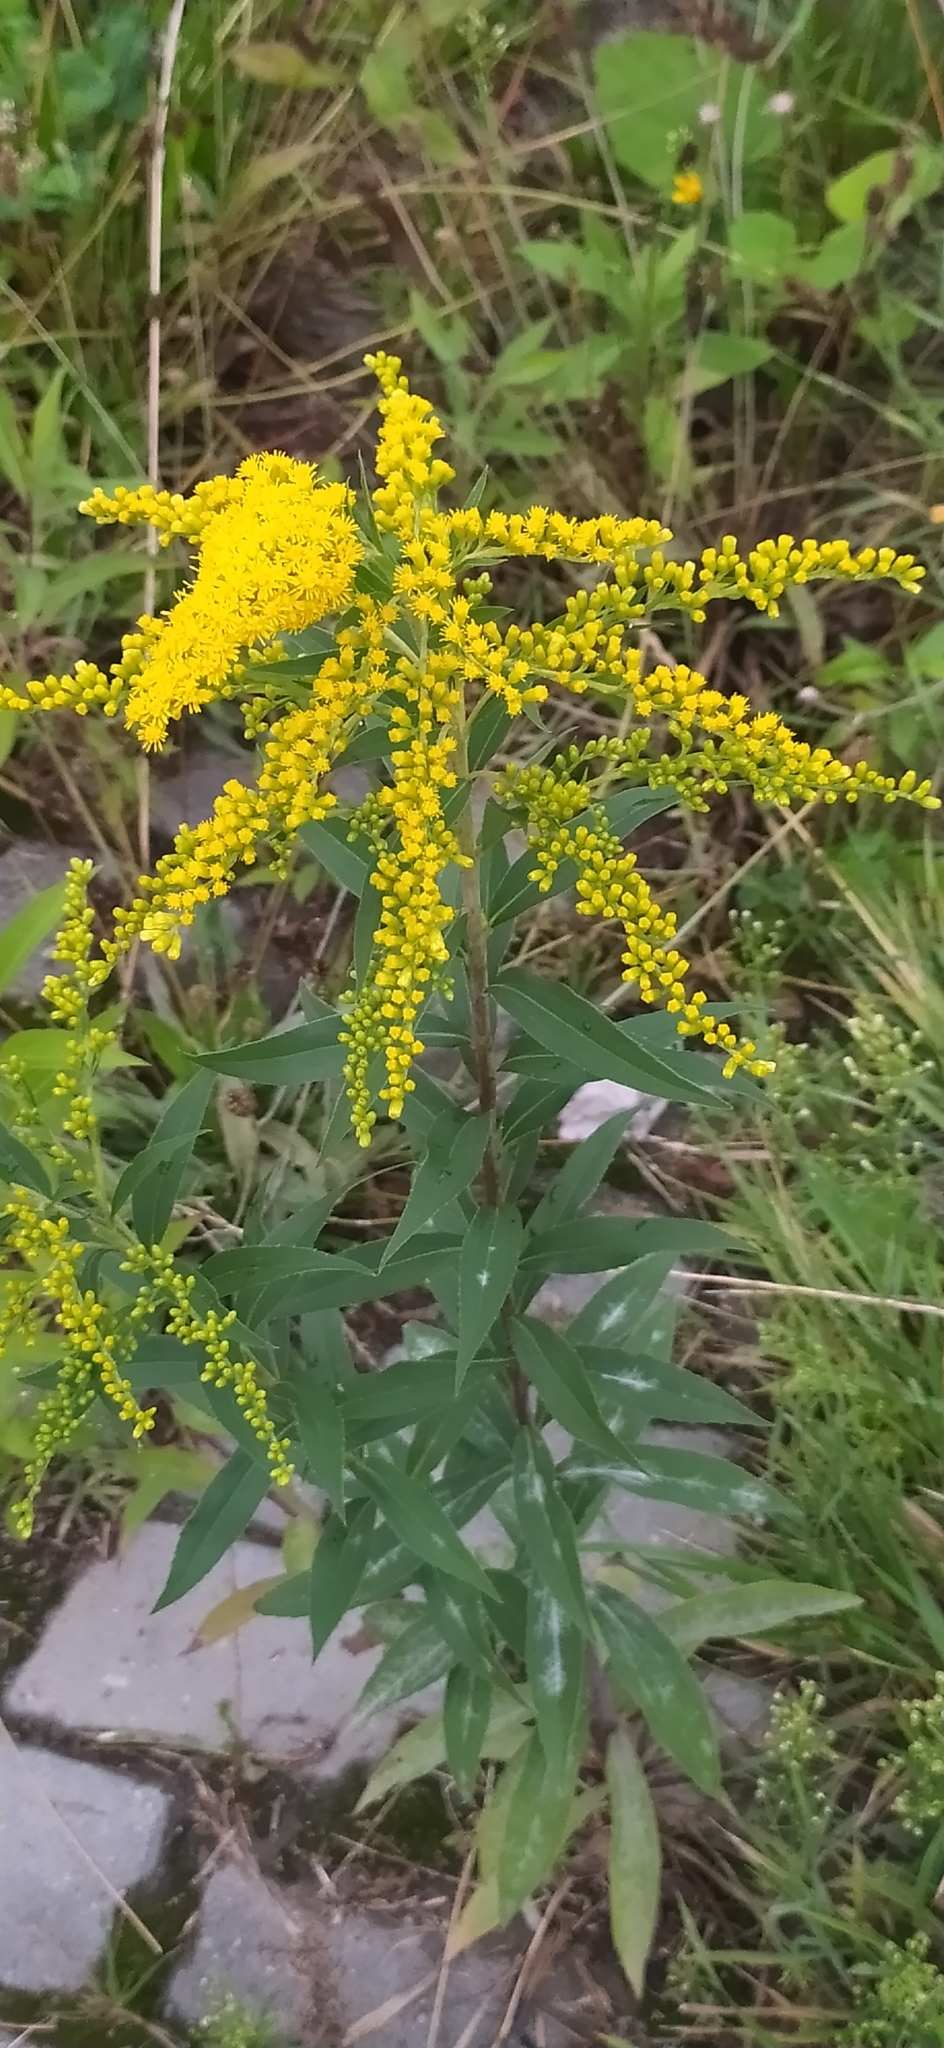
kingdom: Plantae
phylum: Tracheophyta
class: Magnoliopsida
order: Asterales
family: Asteraceae
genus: Solidago
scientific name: Solidago gigantea
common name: Giant goldenrod
